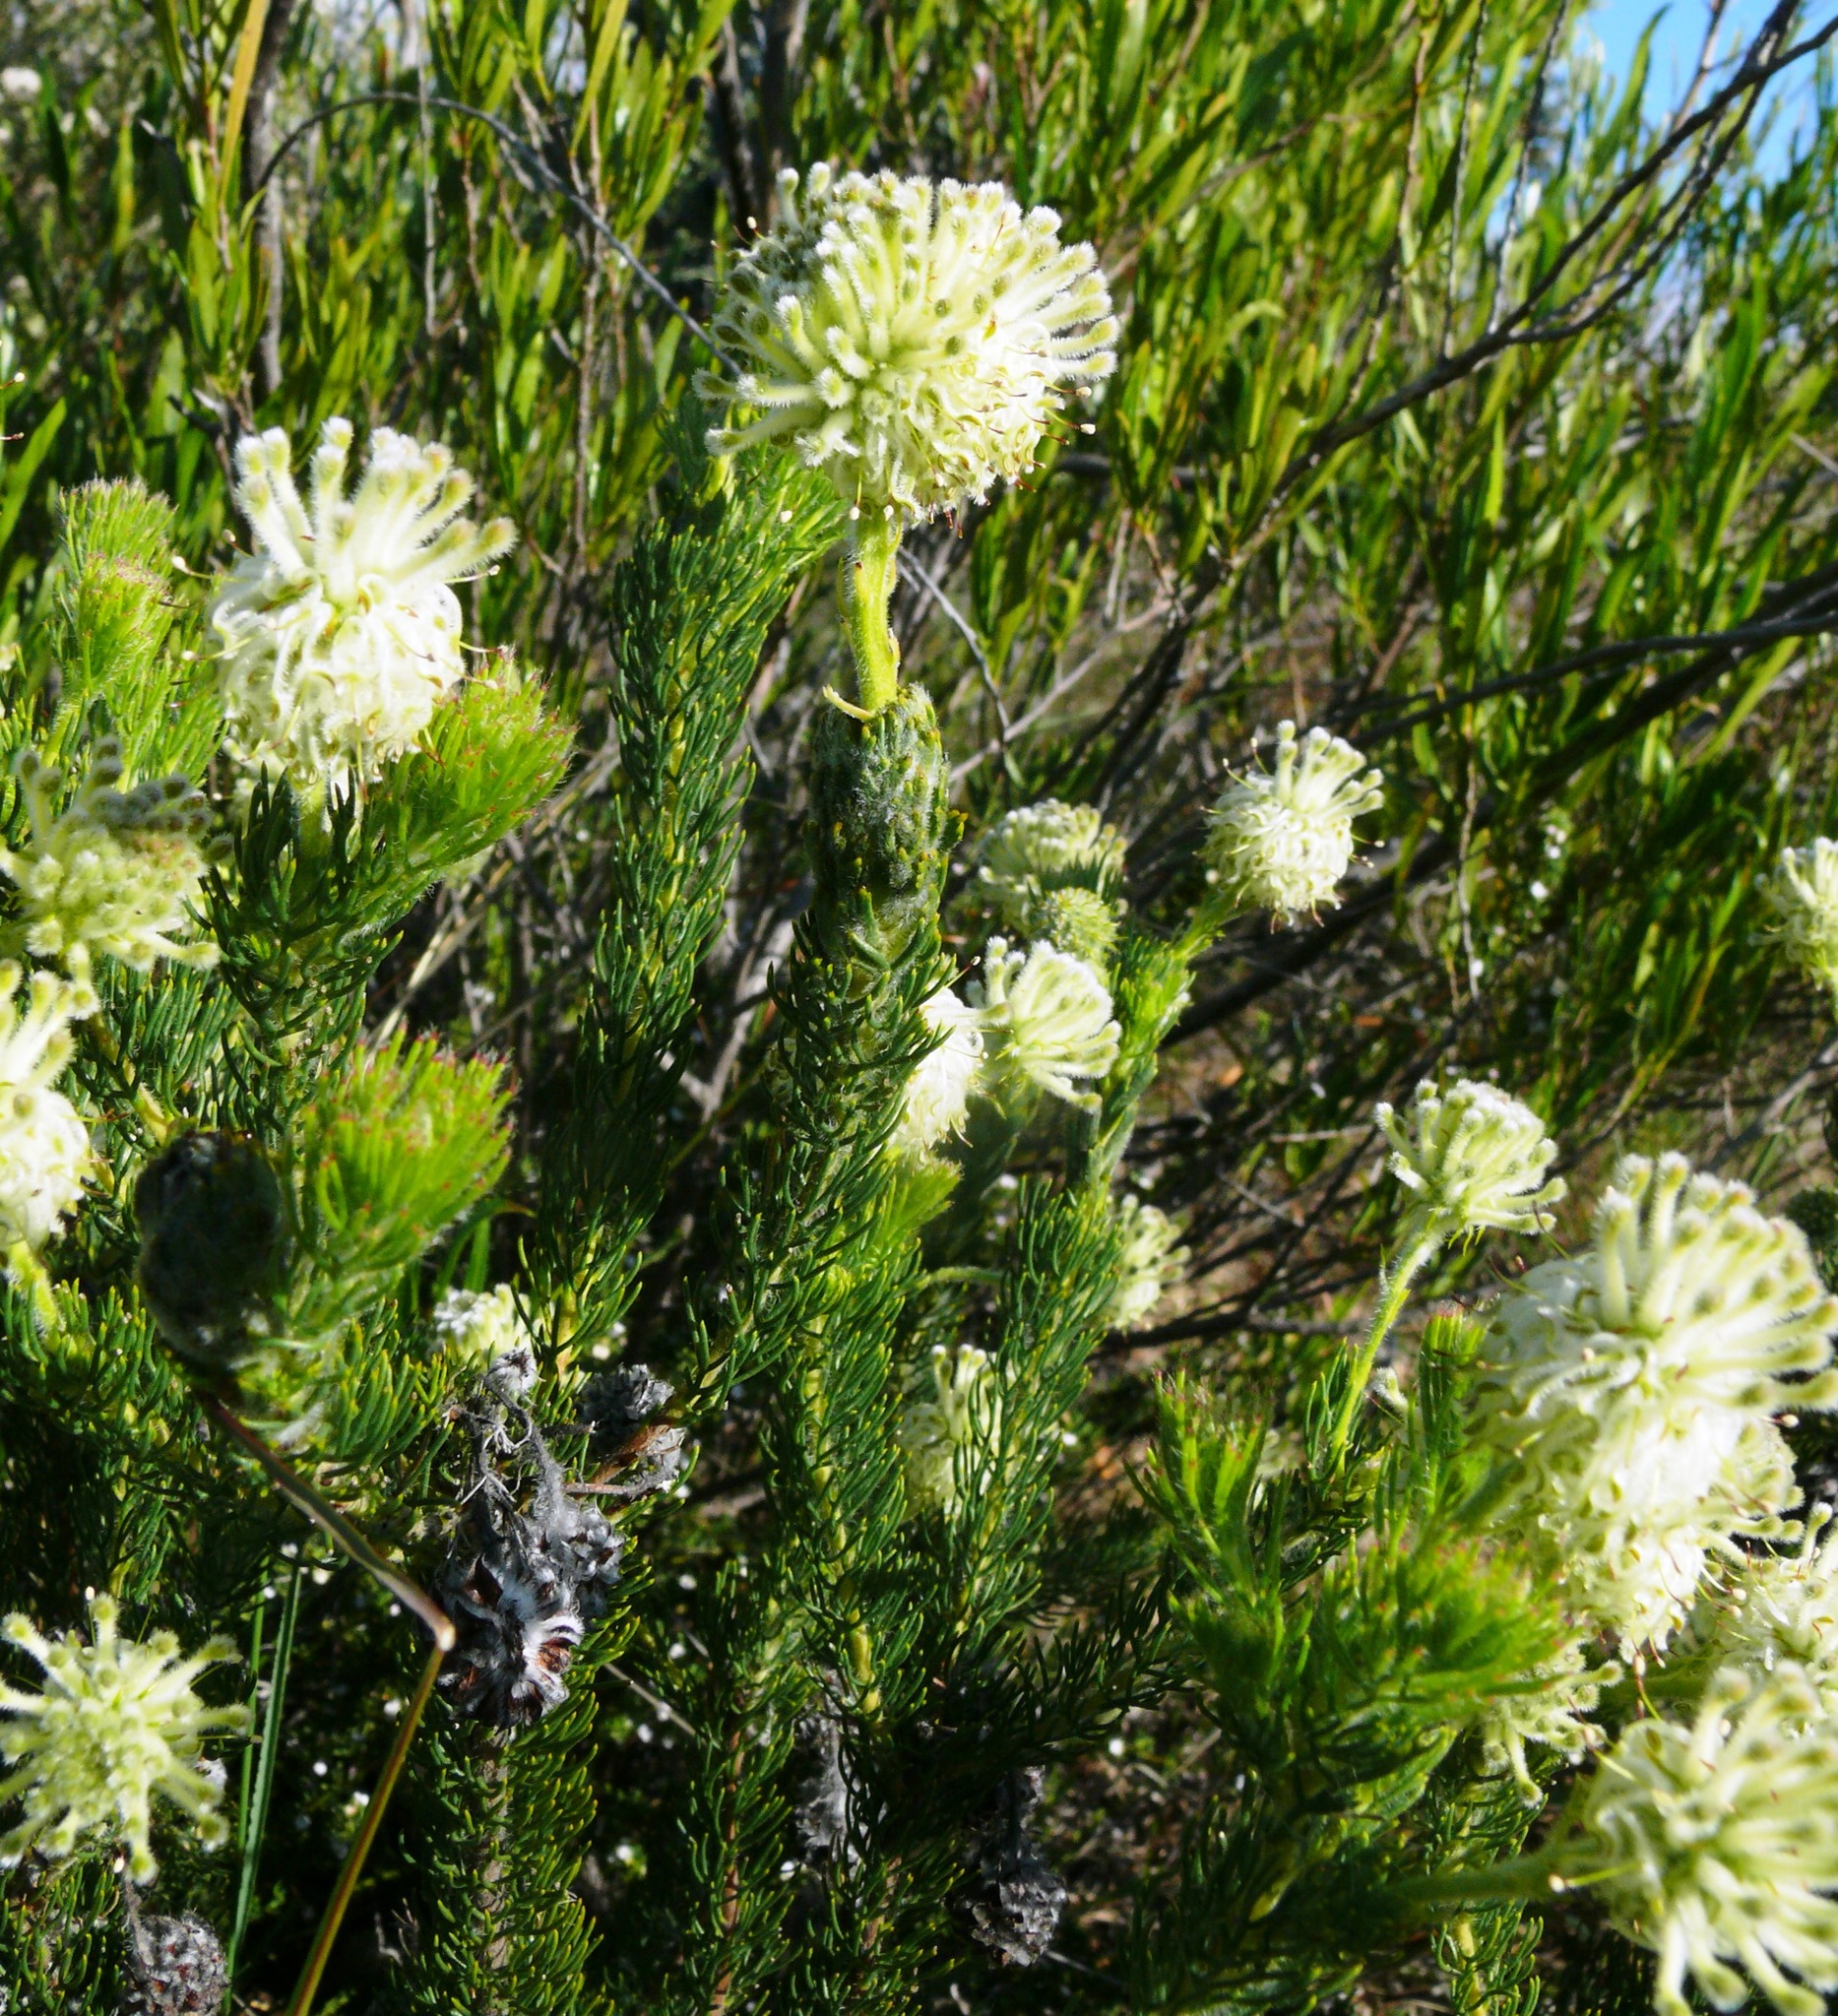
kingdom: Plantae
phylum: Tracheophyta
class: Magnoliopsida
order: Proteales
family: Proteaceae
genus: Serruria
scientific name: Serruria millefolia
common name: Millileaf spiderhead
